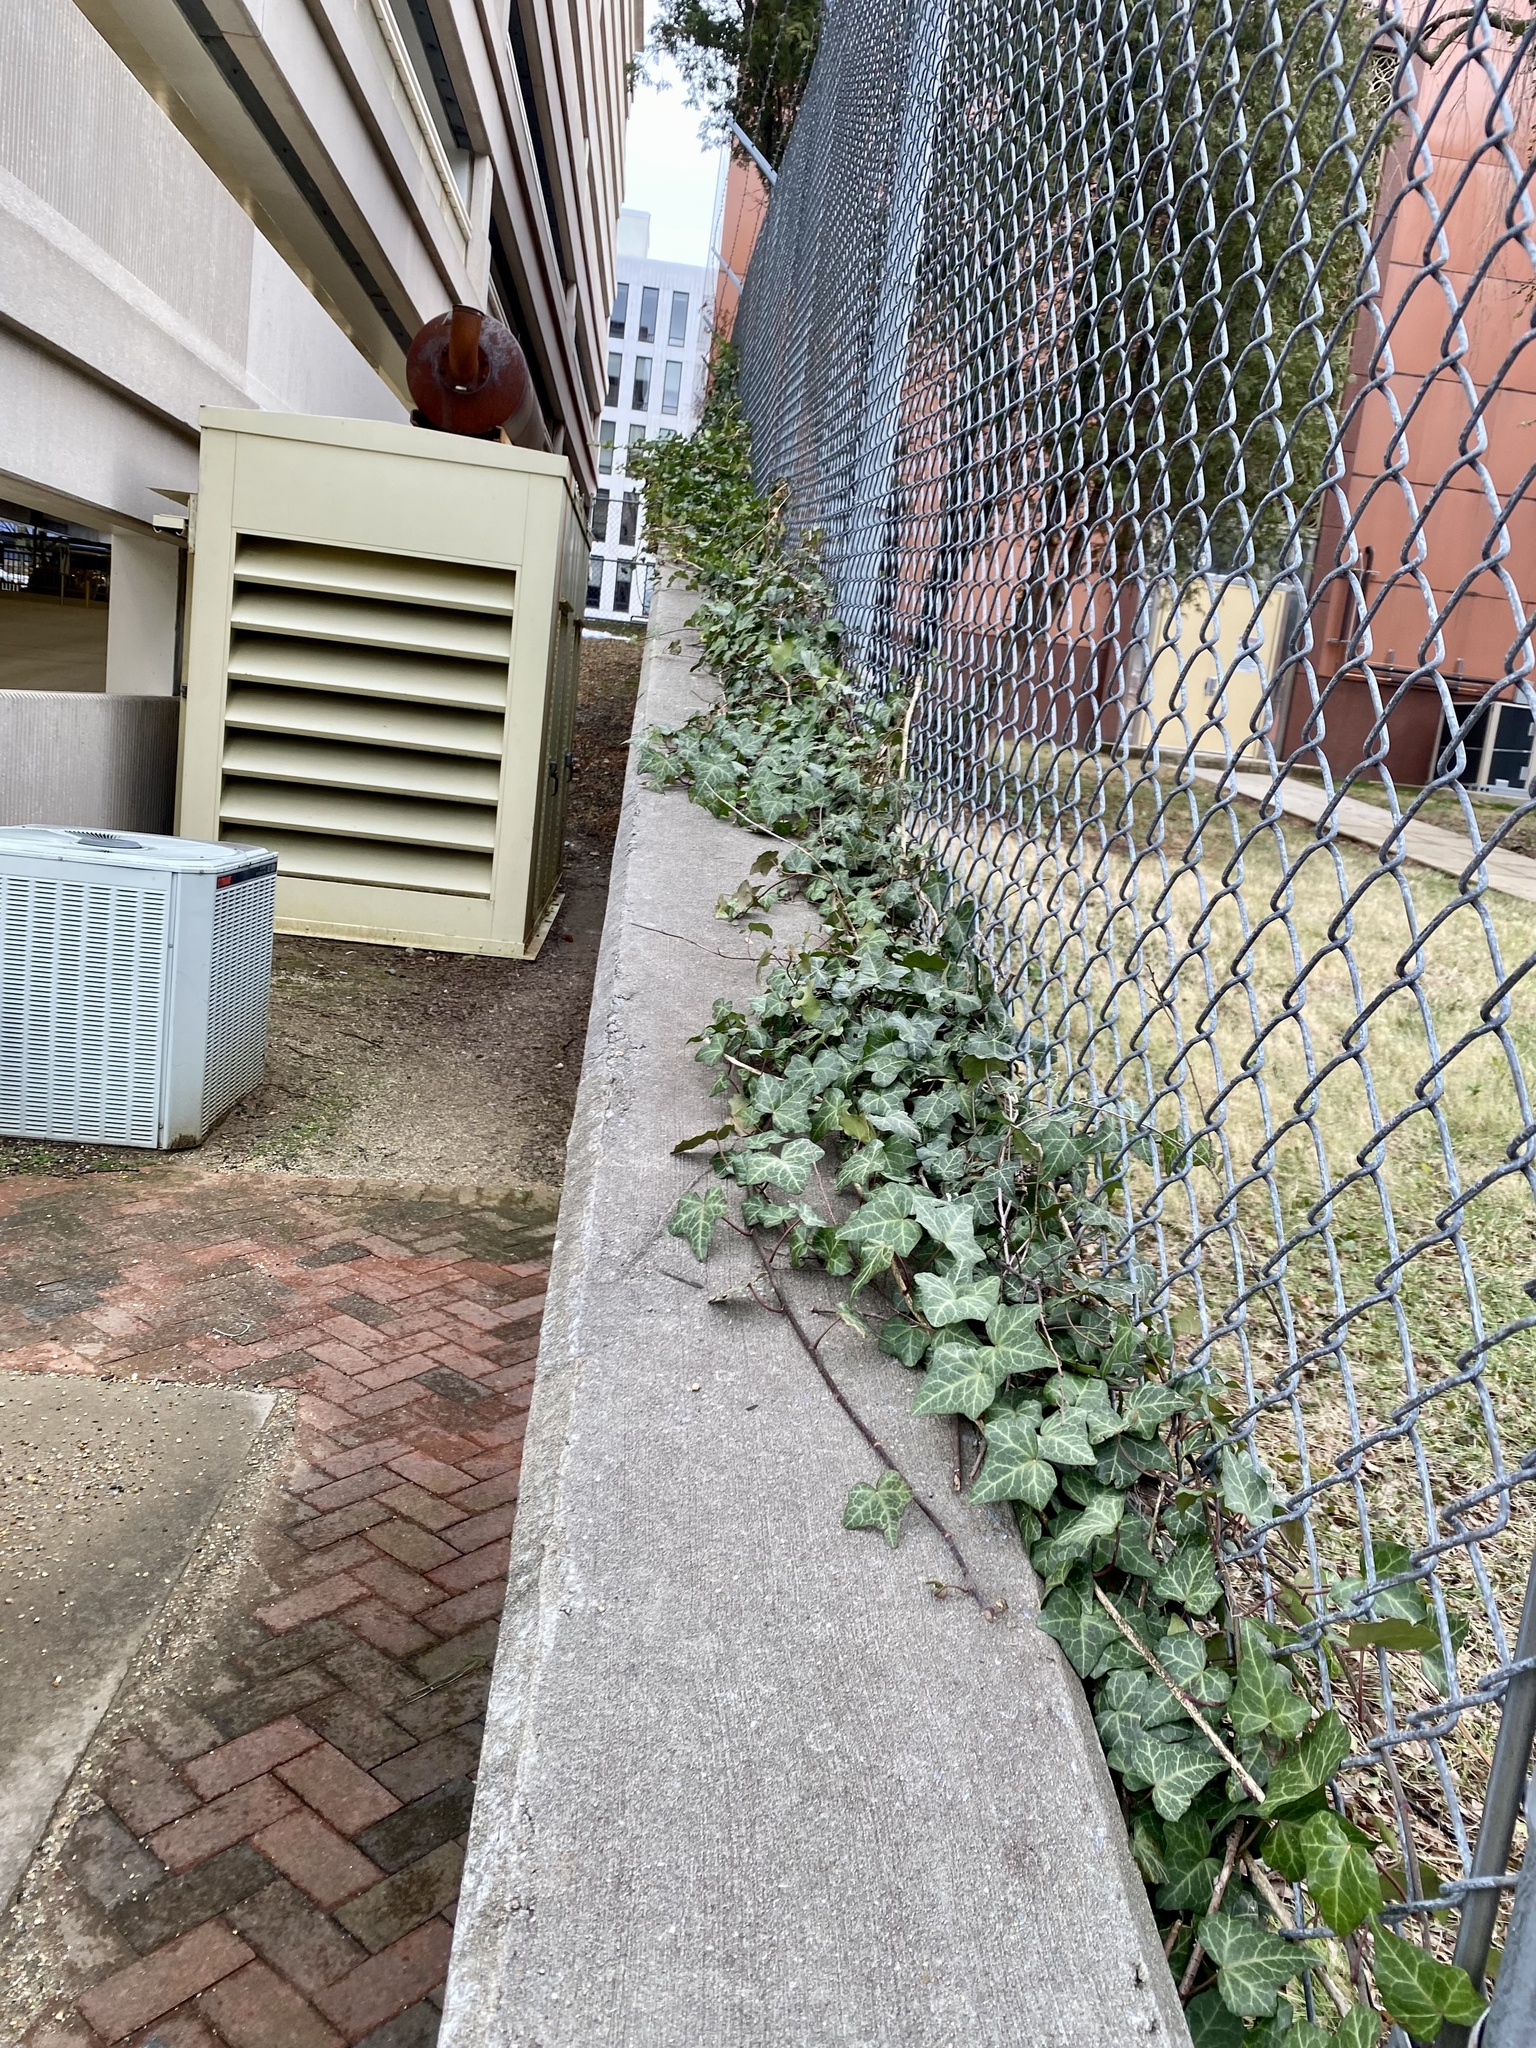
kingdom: Plantae
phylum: Tracheophyta
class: Magnoliopsida
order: Apiales
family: Araliaceae
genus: Hedera
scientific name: Hedera helix
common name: Ivy
